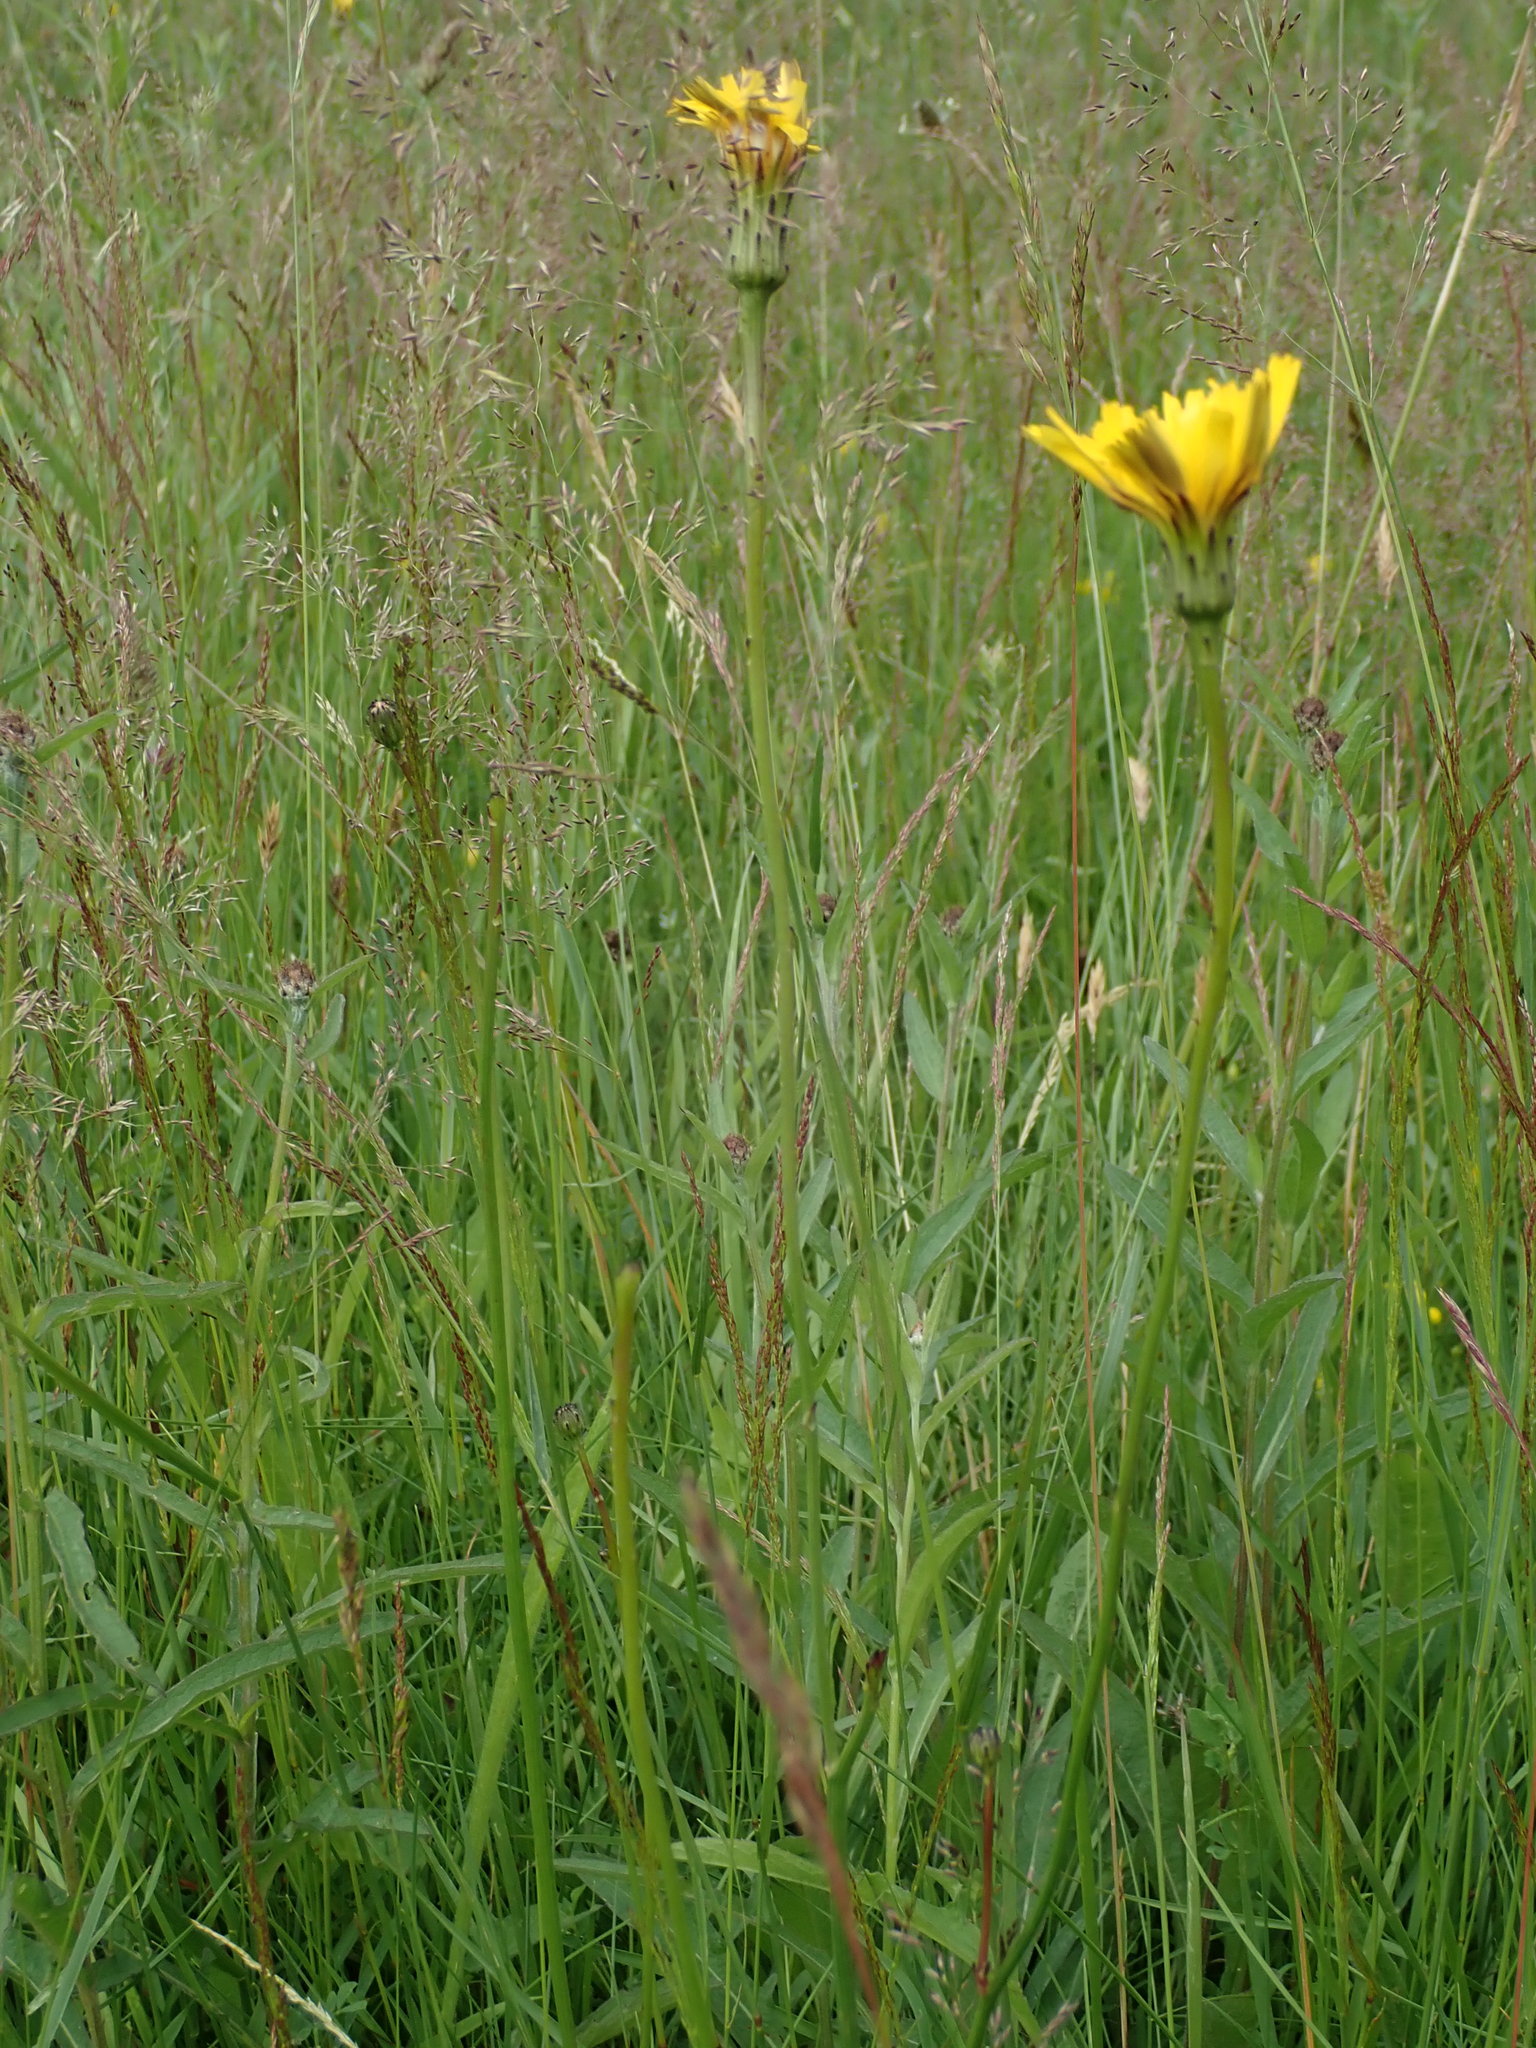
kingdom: Plantae
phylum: Tracheophyta
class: Magnoliopsida
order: Asterales
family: Asteraceae
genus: Hypochaeris
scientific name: Hypochaeris radicata
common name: Flatweed
